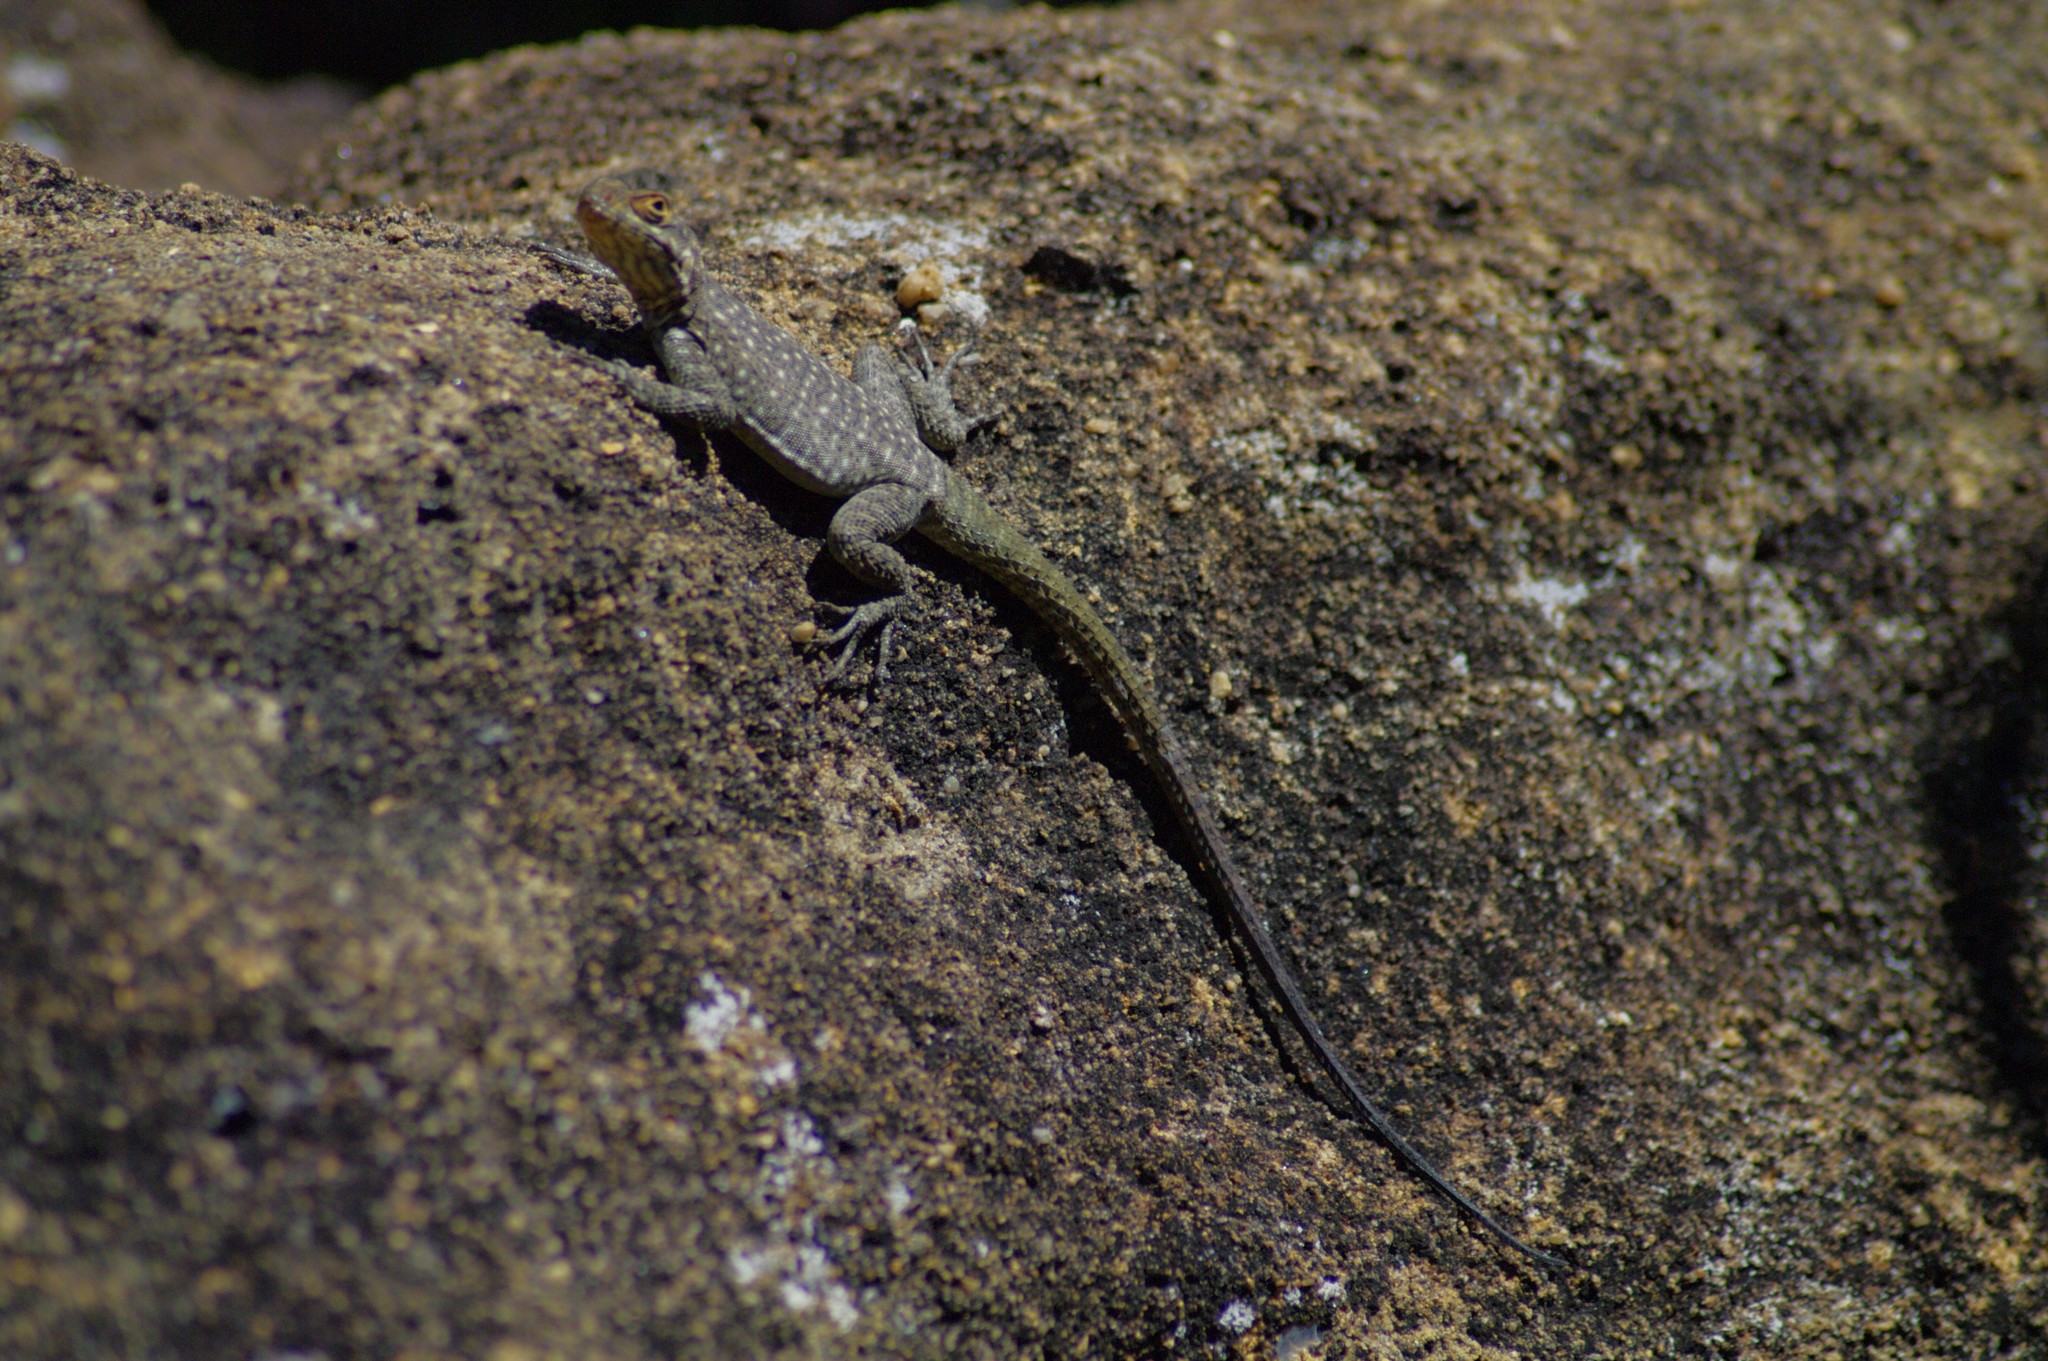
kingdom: Animalia
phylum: Chordata
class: Squamata
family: Opluridae
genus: Oplurus
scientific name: Oplurus quadrimaculatus
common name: Duméril's madagascar swift
